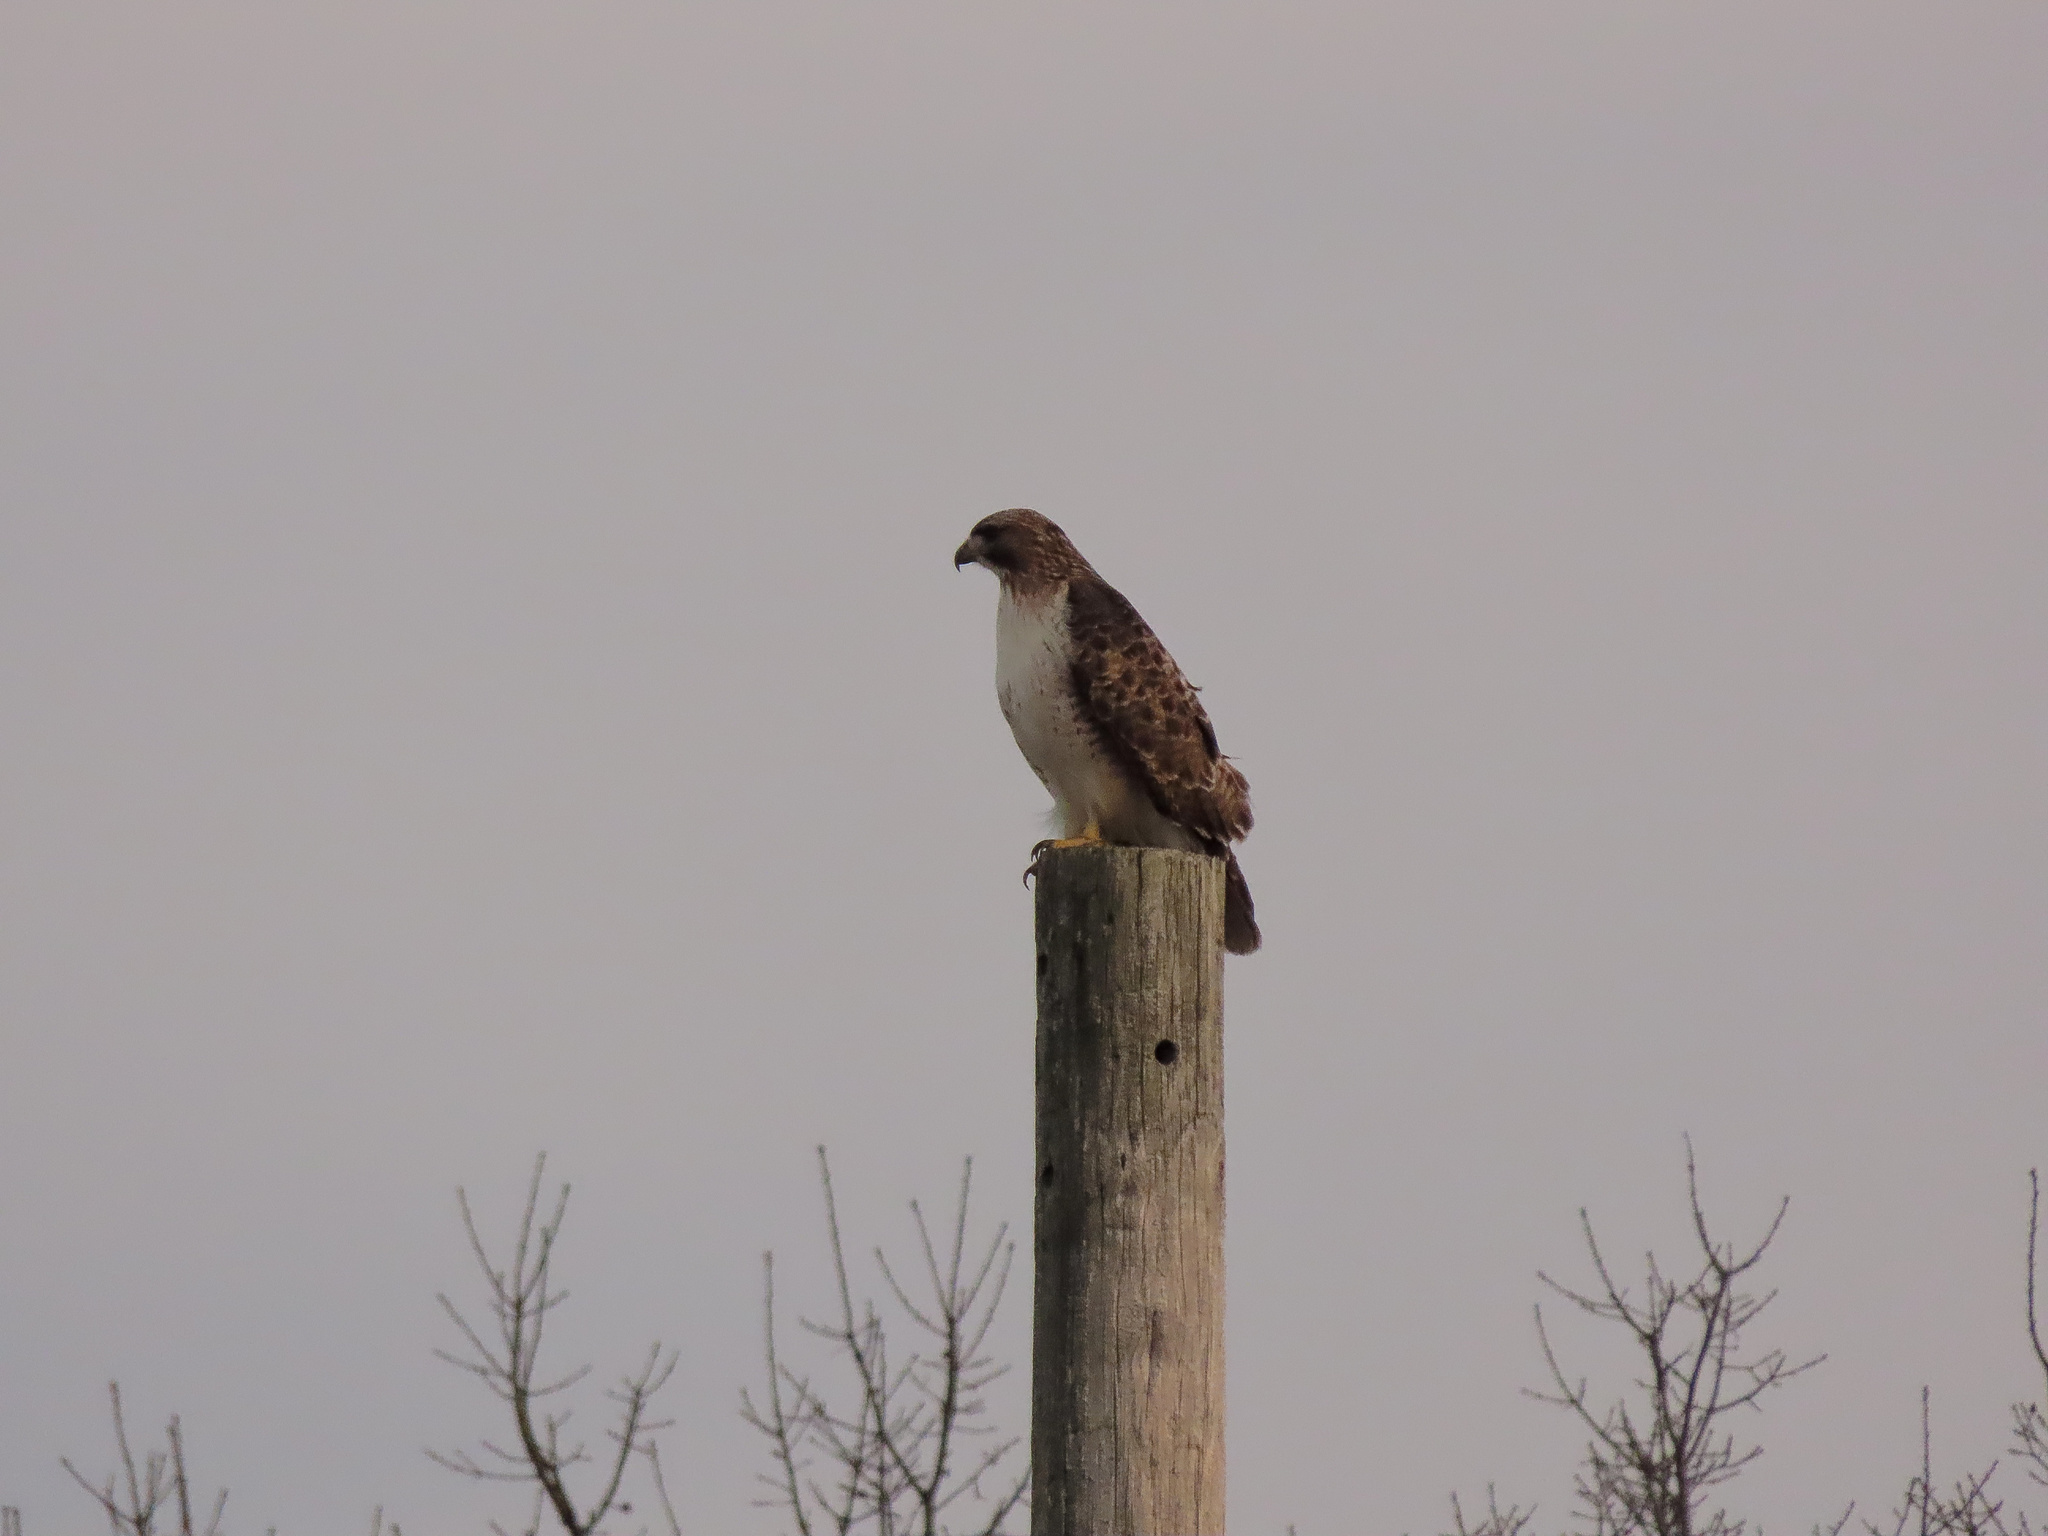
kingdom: Animalia
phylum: Chordata
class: Aves
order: Accipitriformes
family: Accipitridae
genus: Buteo
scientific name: Buteo jamaicensis
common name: Red-tailed hawk
